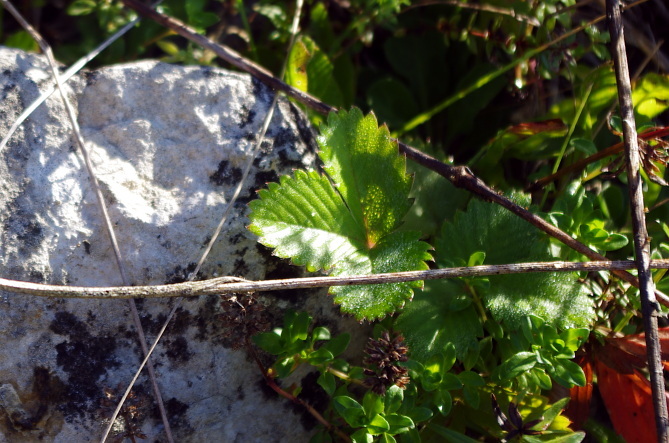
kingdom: Plantae
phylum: Tracheophyta
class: Magnoliopsida
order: Rosales
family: Rosaceae
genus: Fragaria
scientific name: Fragaria vesca
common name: Wild strawberry
